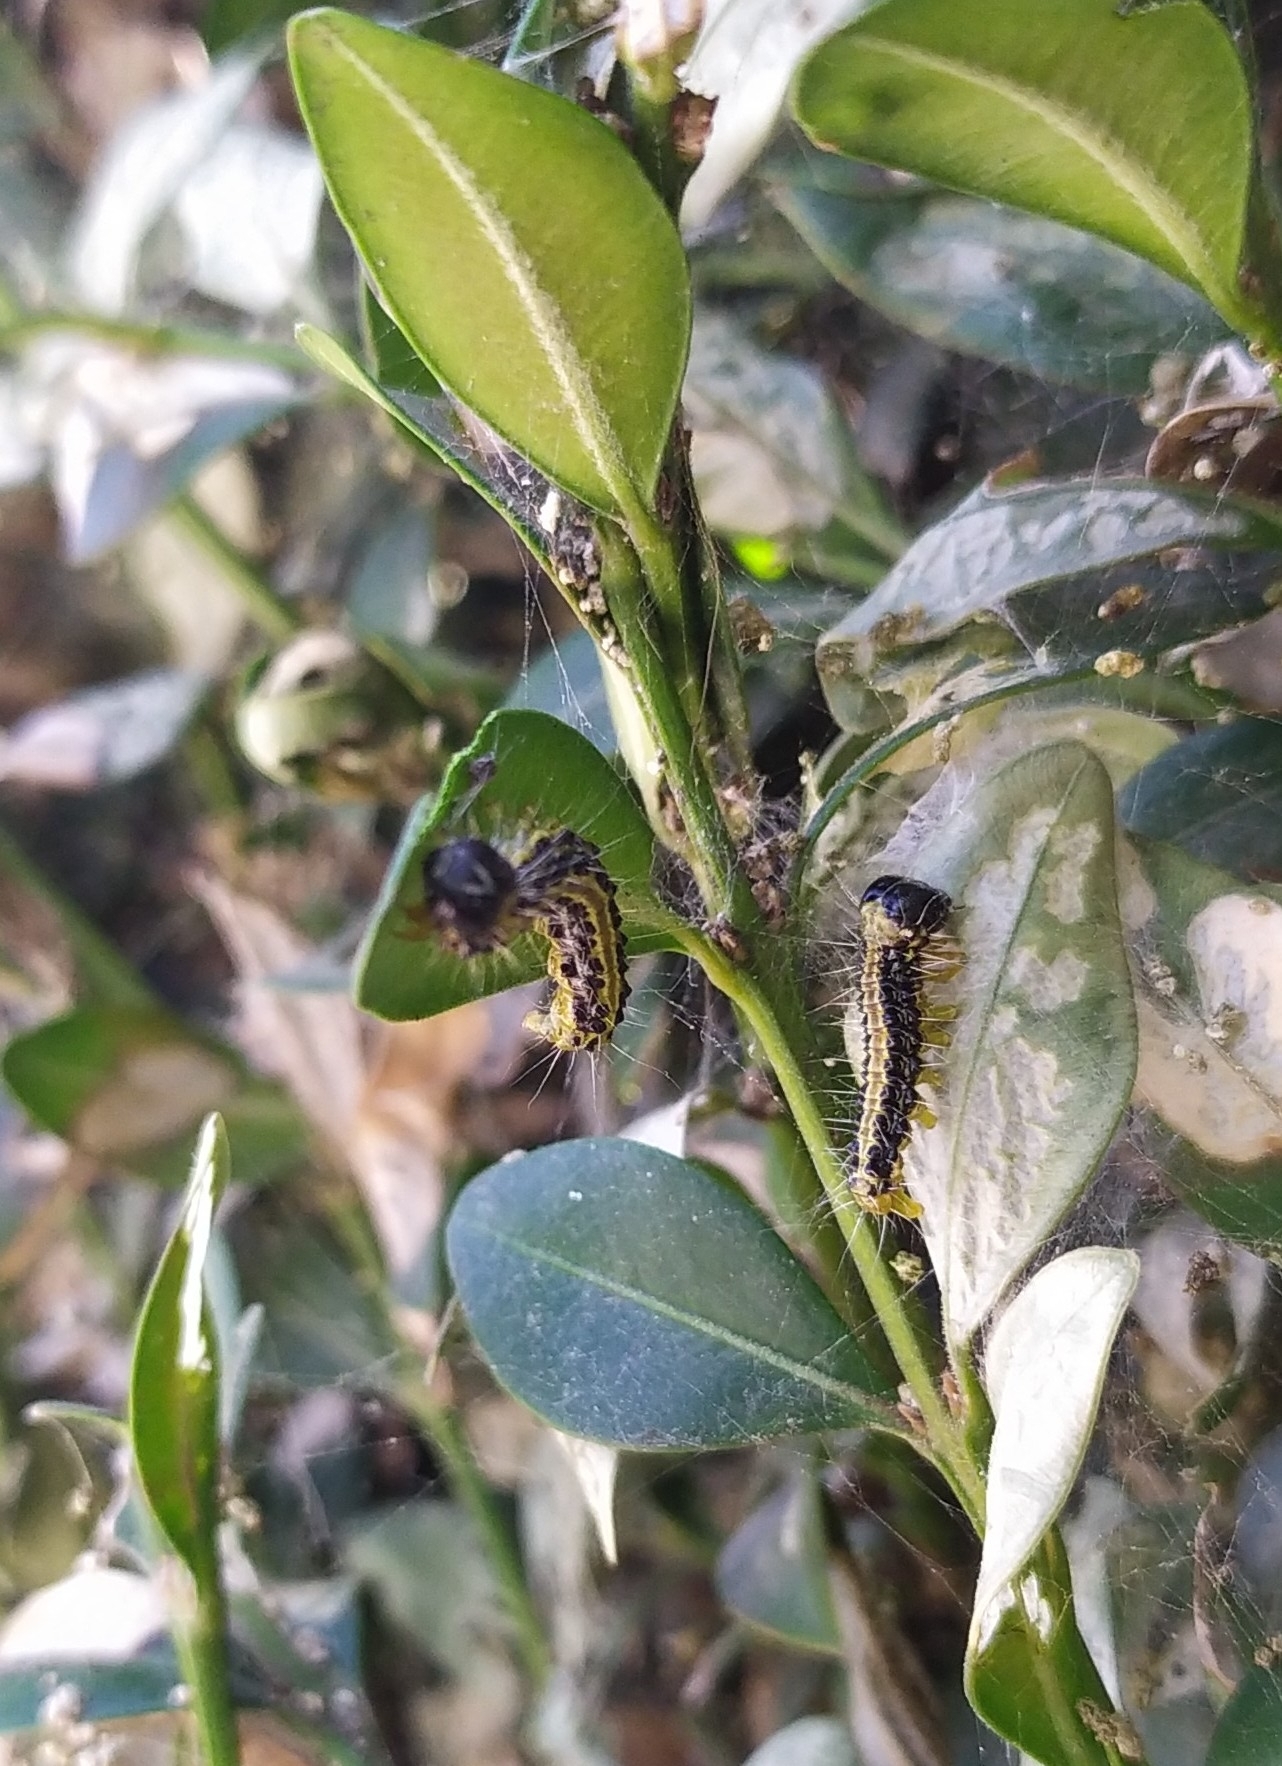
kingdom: Animalia
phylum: Arthropoda
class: Insecta
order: Lepidoptera
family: Crambidae
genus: Cydalima
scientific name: Cydalima perspectalis
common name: Box tree moth
